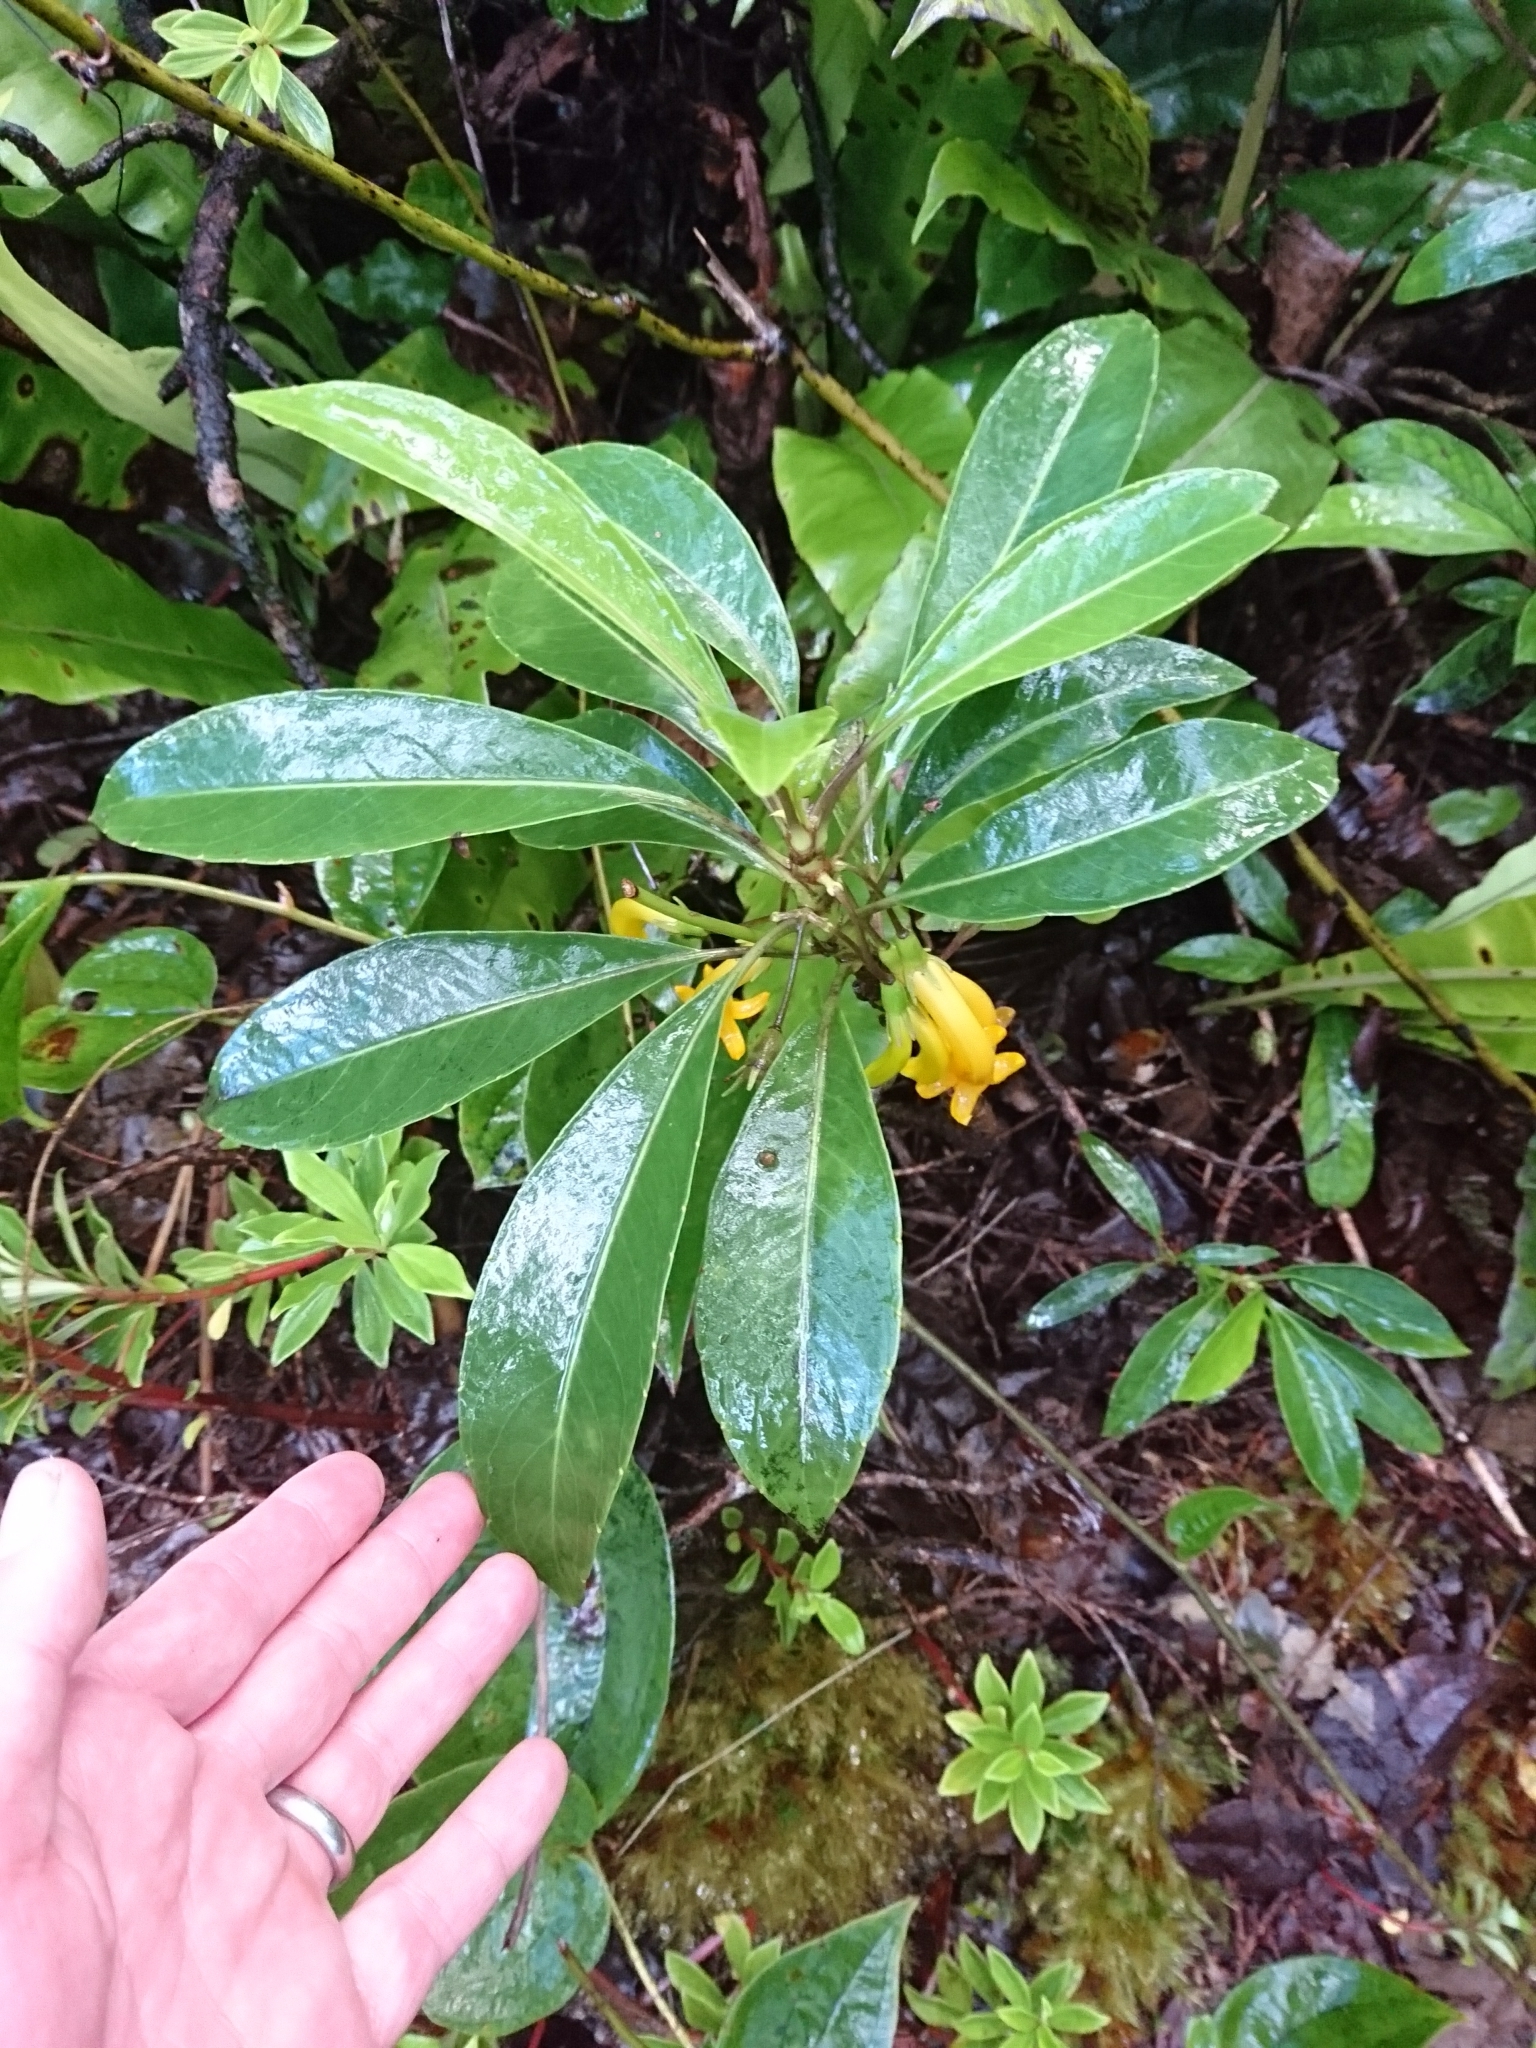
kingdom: Plantae
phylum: Tracheophyta
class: Magnoliopsida
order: Asterales
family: Goodeniaceae
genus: Scaevola
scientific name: Scaevola glabra
